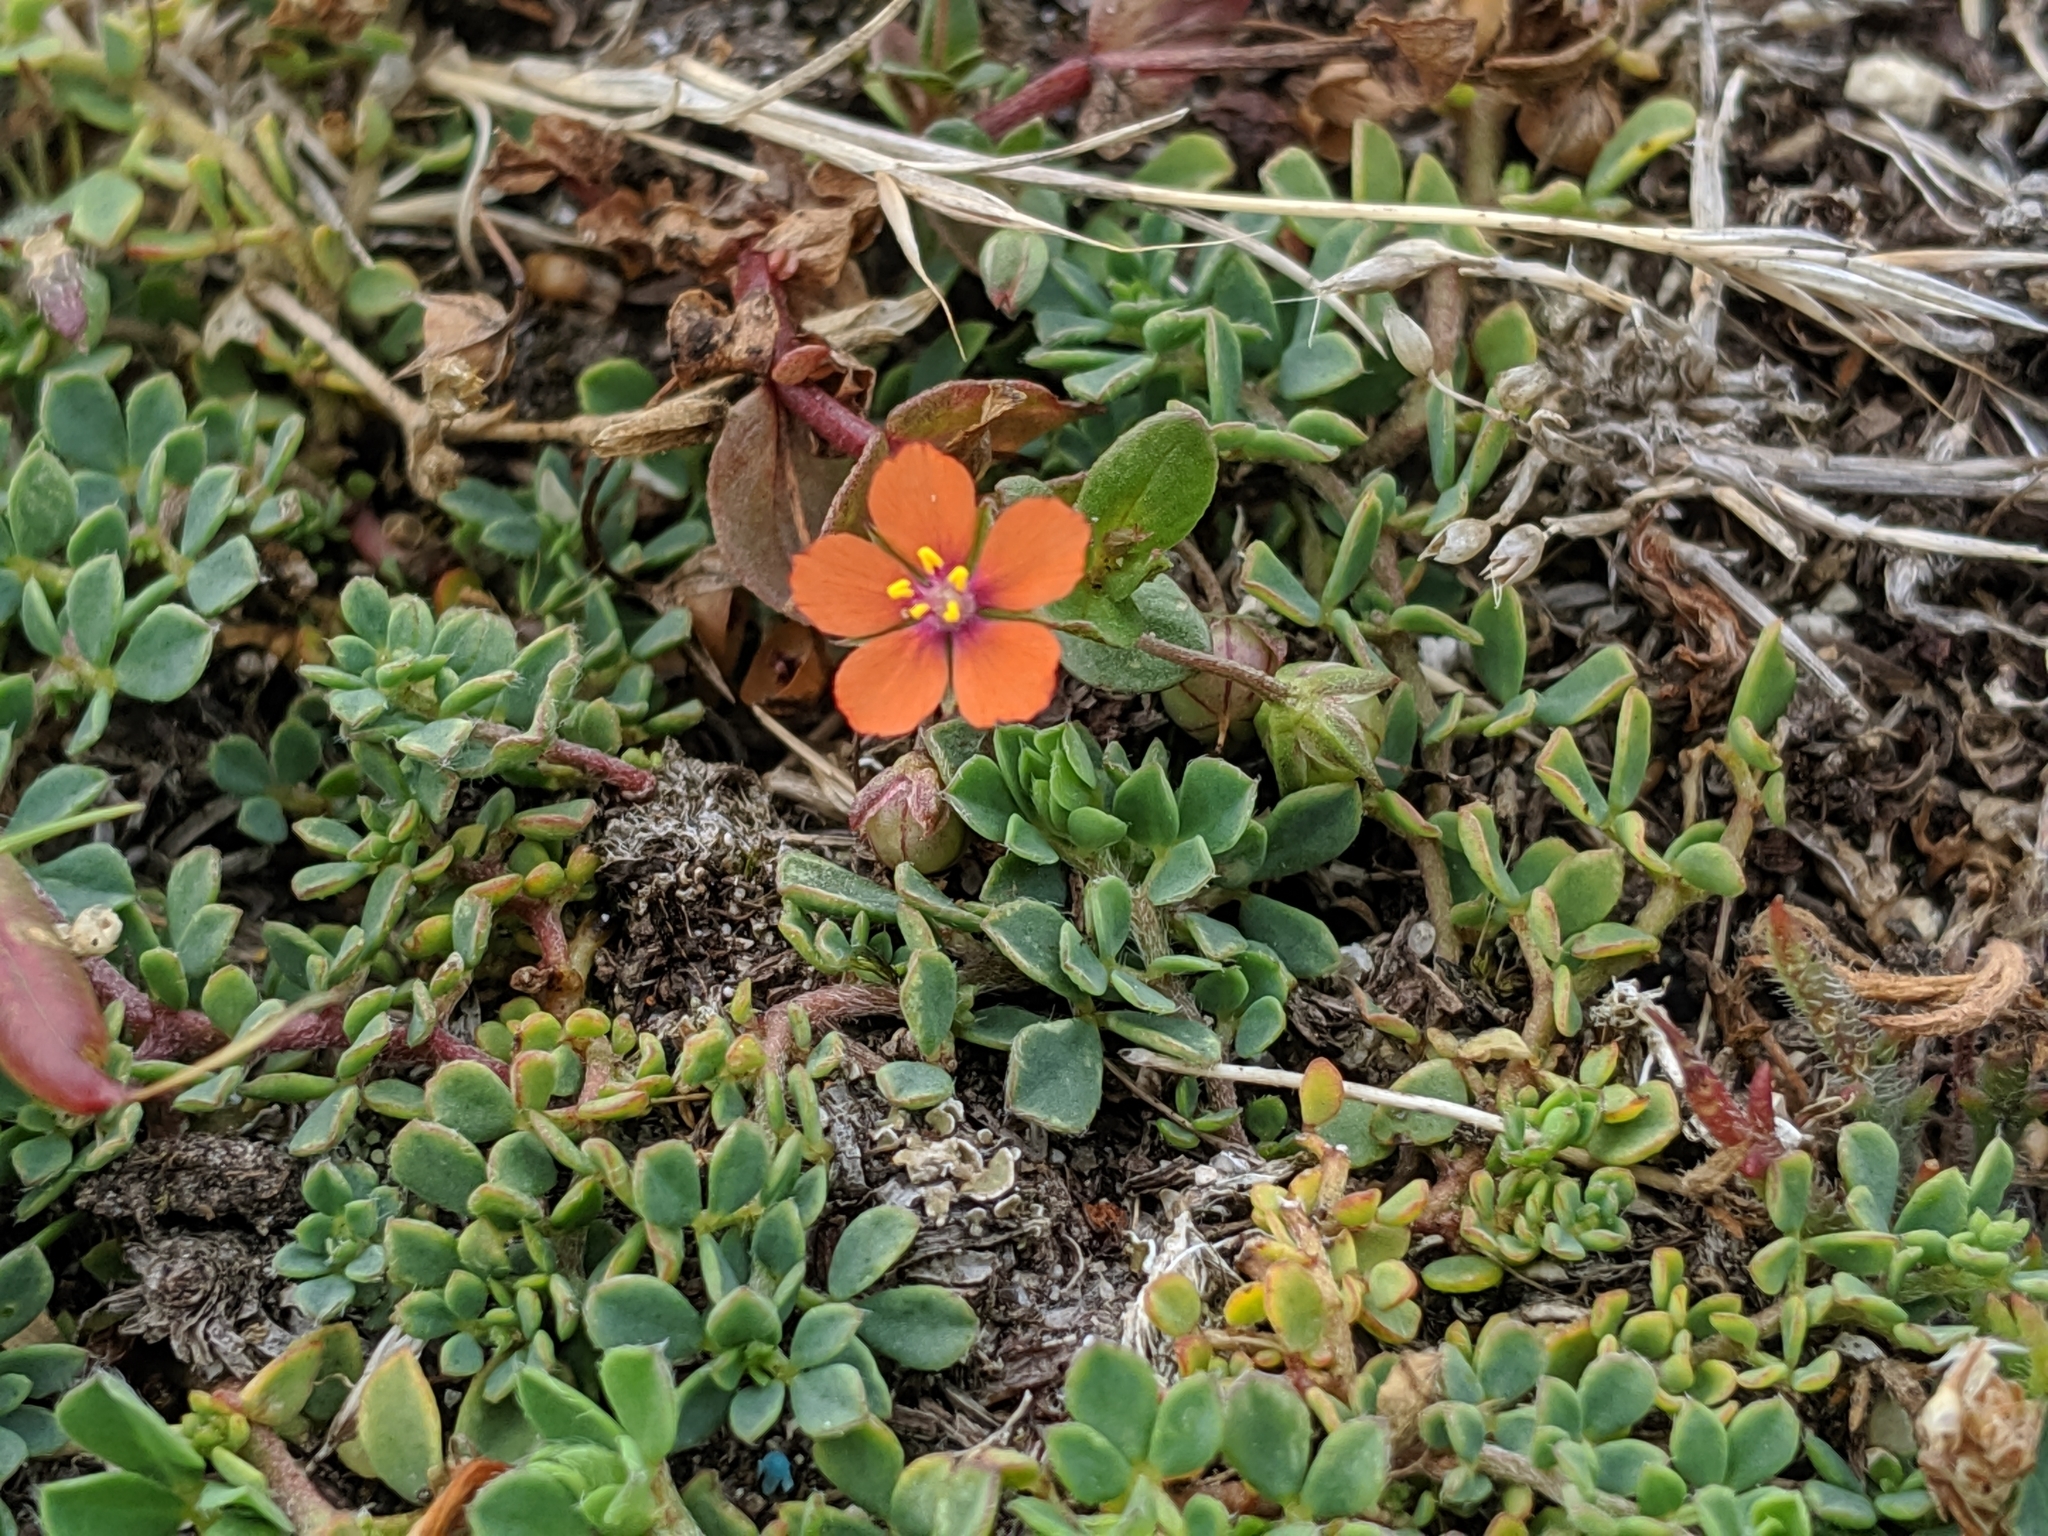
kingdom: Plantae
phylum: Tracheophyta
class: Magnoliopsida
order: Ericales
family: Primulaceae
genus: Lysimachia
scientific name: Lysimachia arvensis
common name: Scarlet pimpernel
